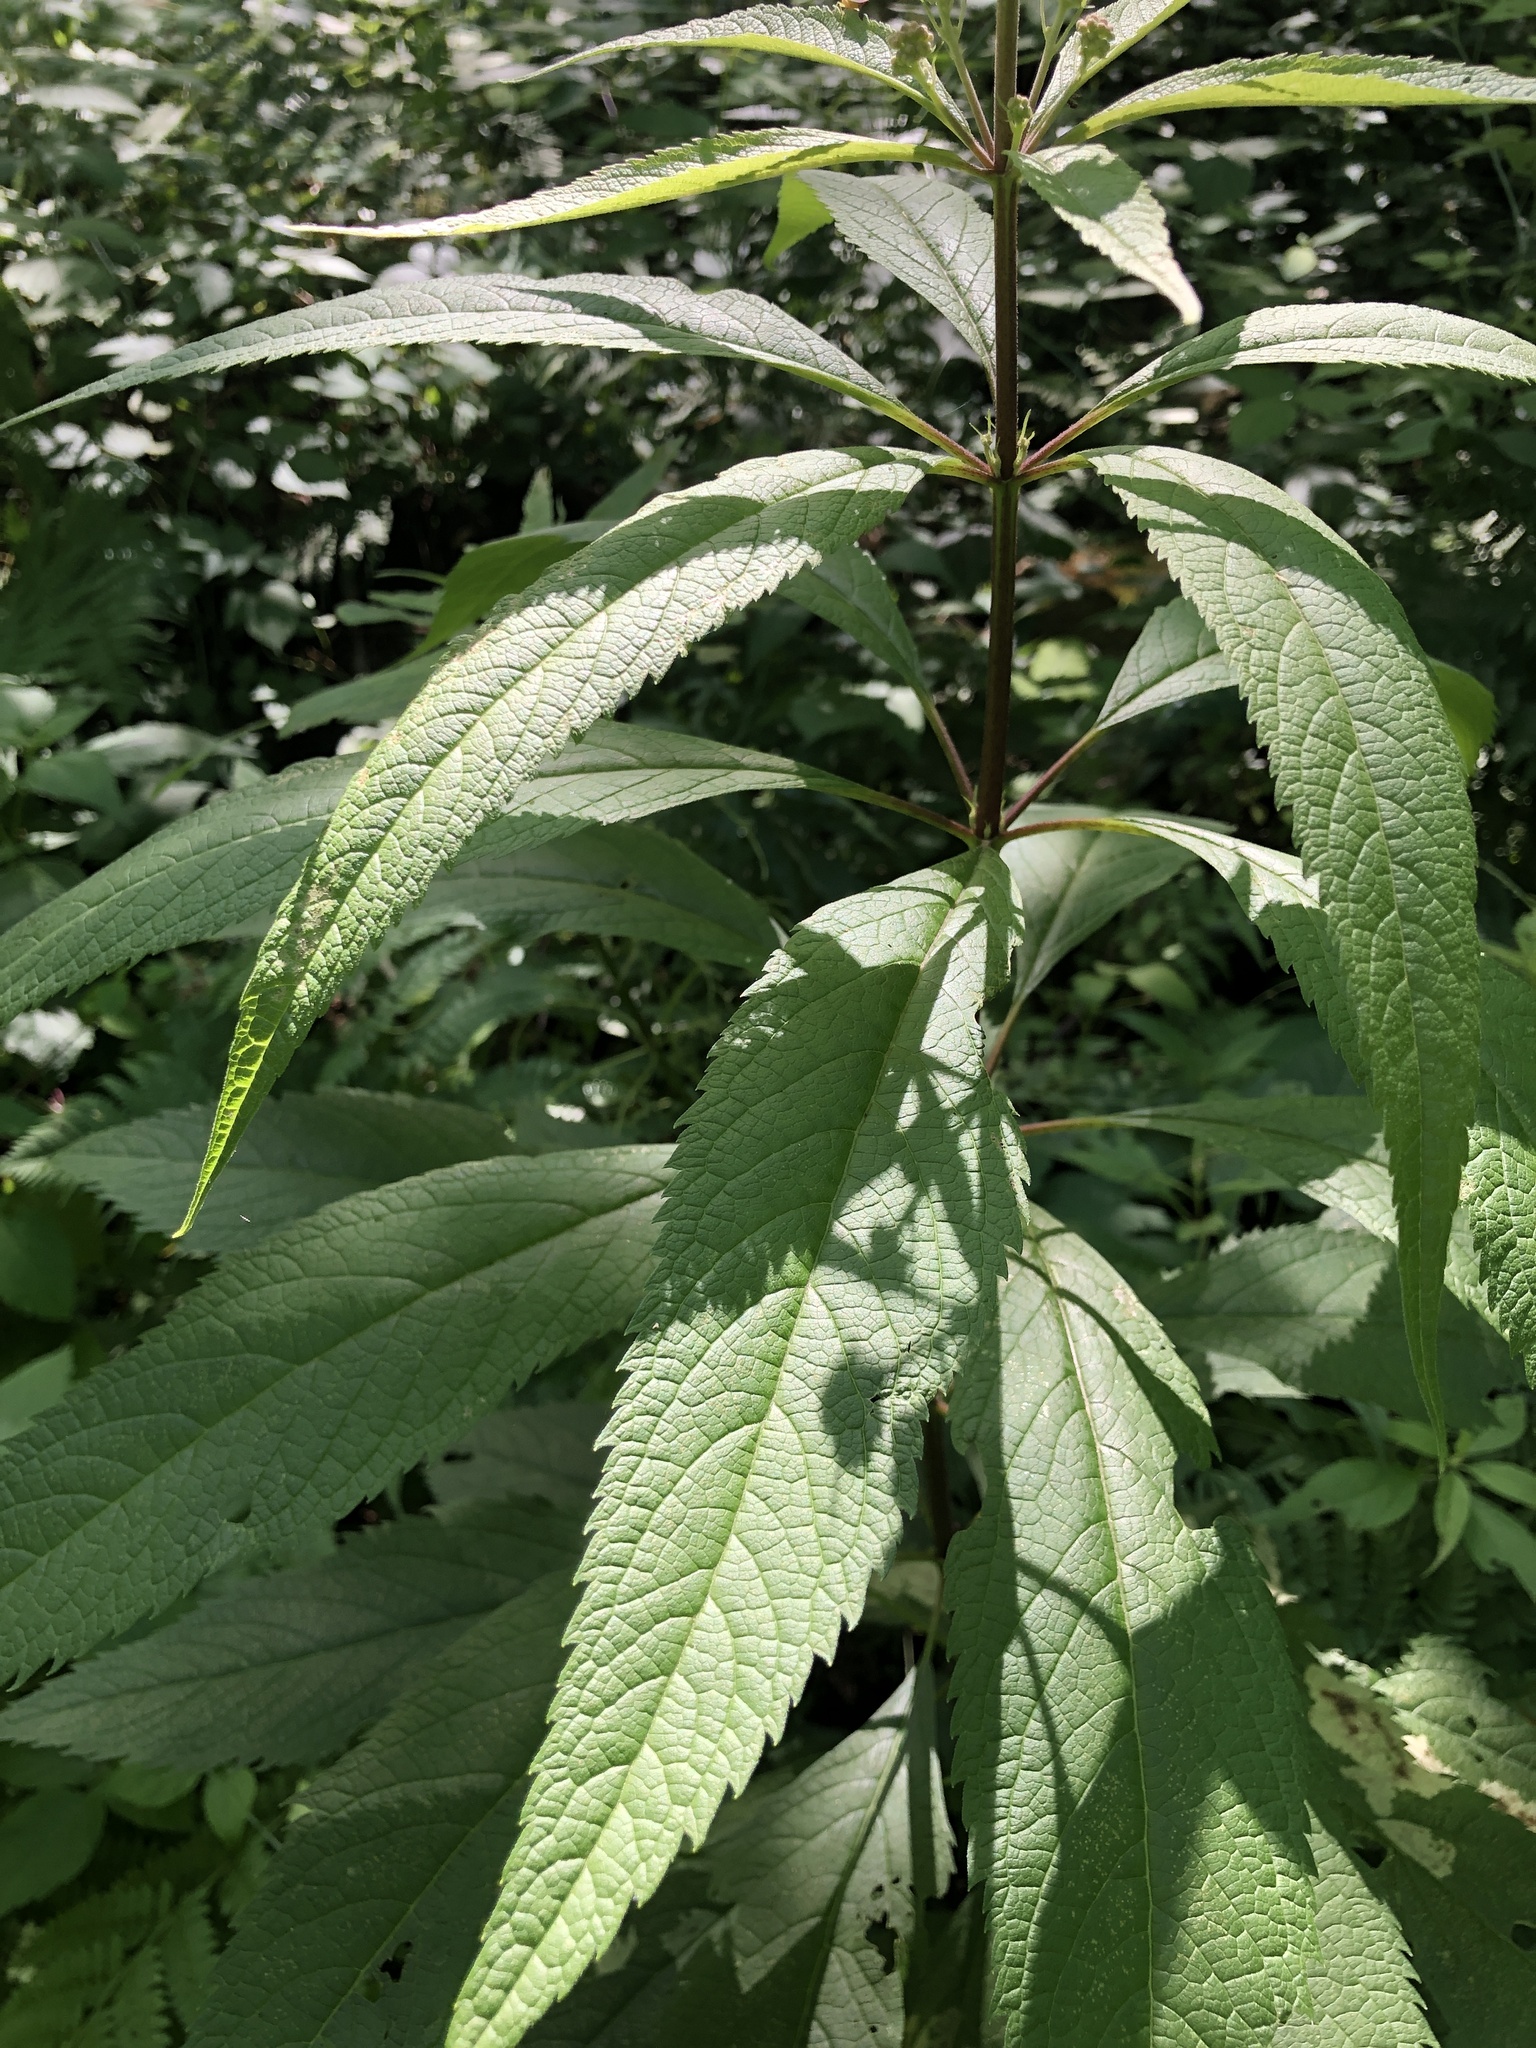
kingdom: Plantae
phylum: Tracheophyta
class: Magnoliopsida
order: Asterales
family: Asteraceae
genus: Eutrochium
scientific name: Eutrochium maculatum
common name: Spotted joe pye weed
